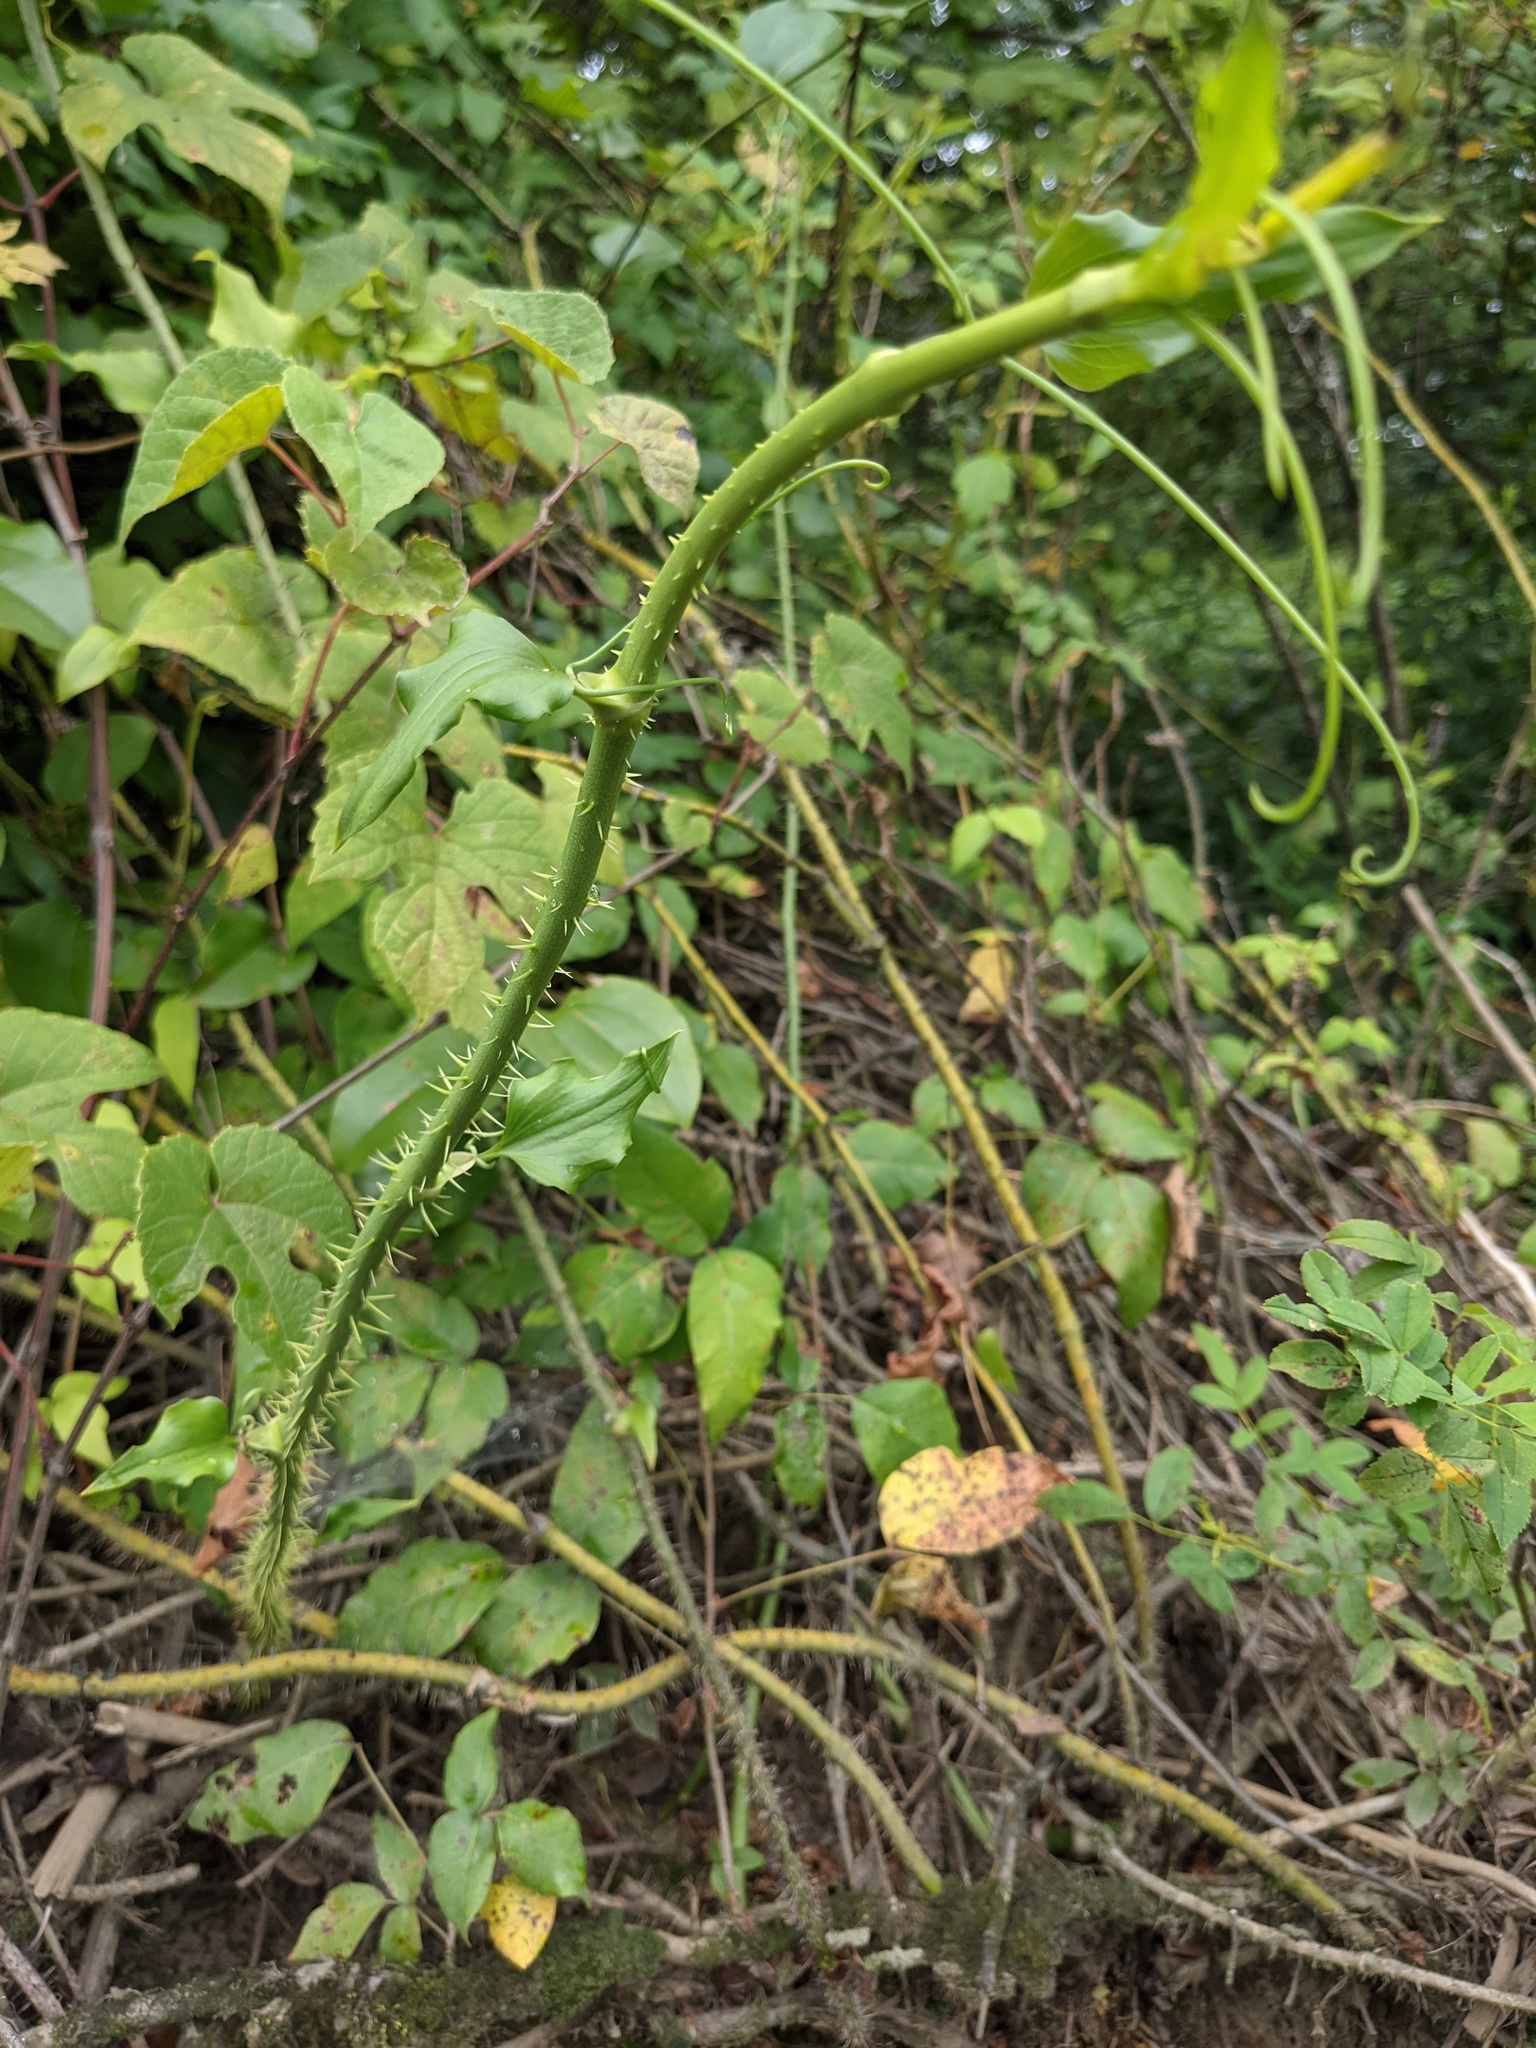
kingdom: Plantae
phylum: Tracheophyta
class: Liliopsida
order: Liliales
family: Smilacaceae
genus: Smilax
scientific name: Smilax tamnoides
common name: Hellfetter
